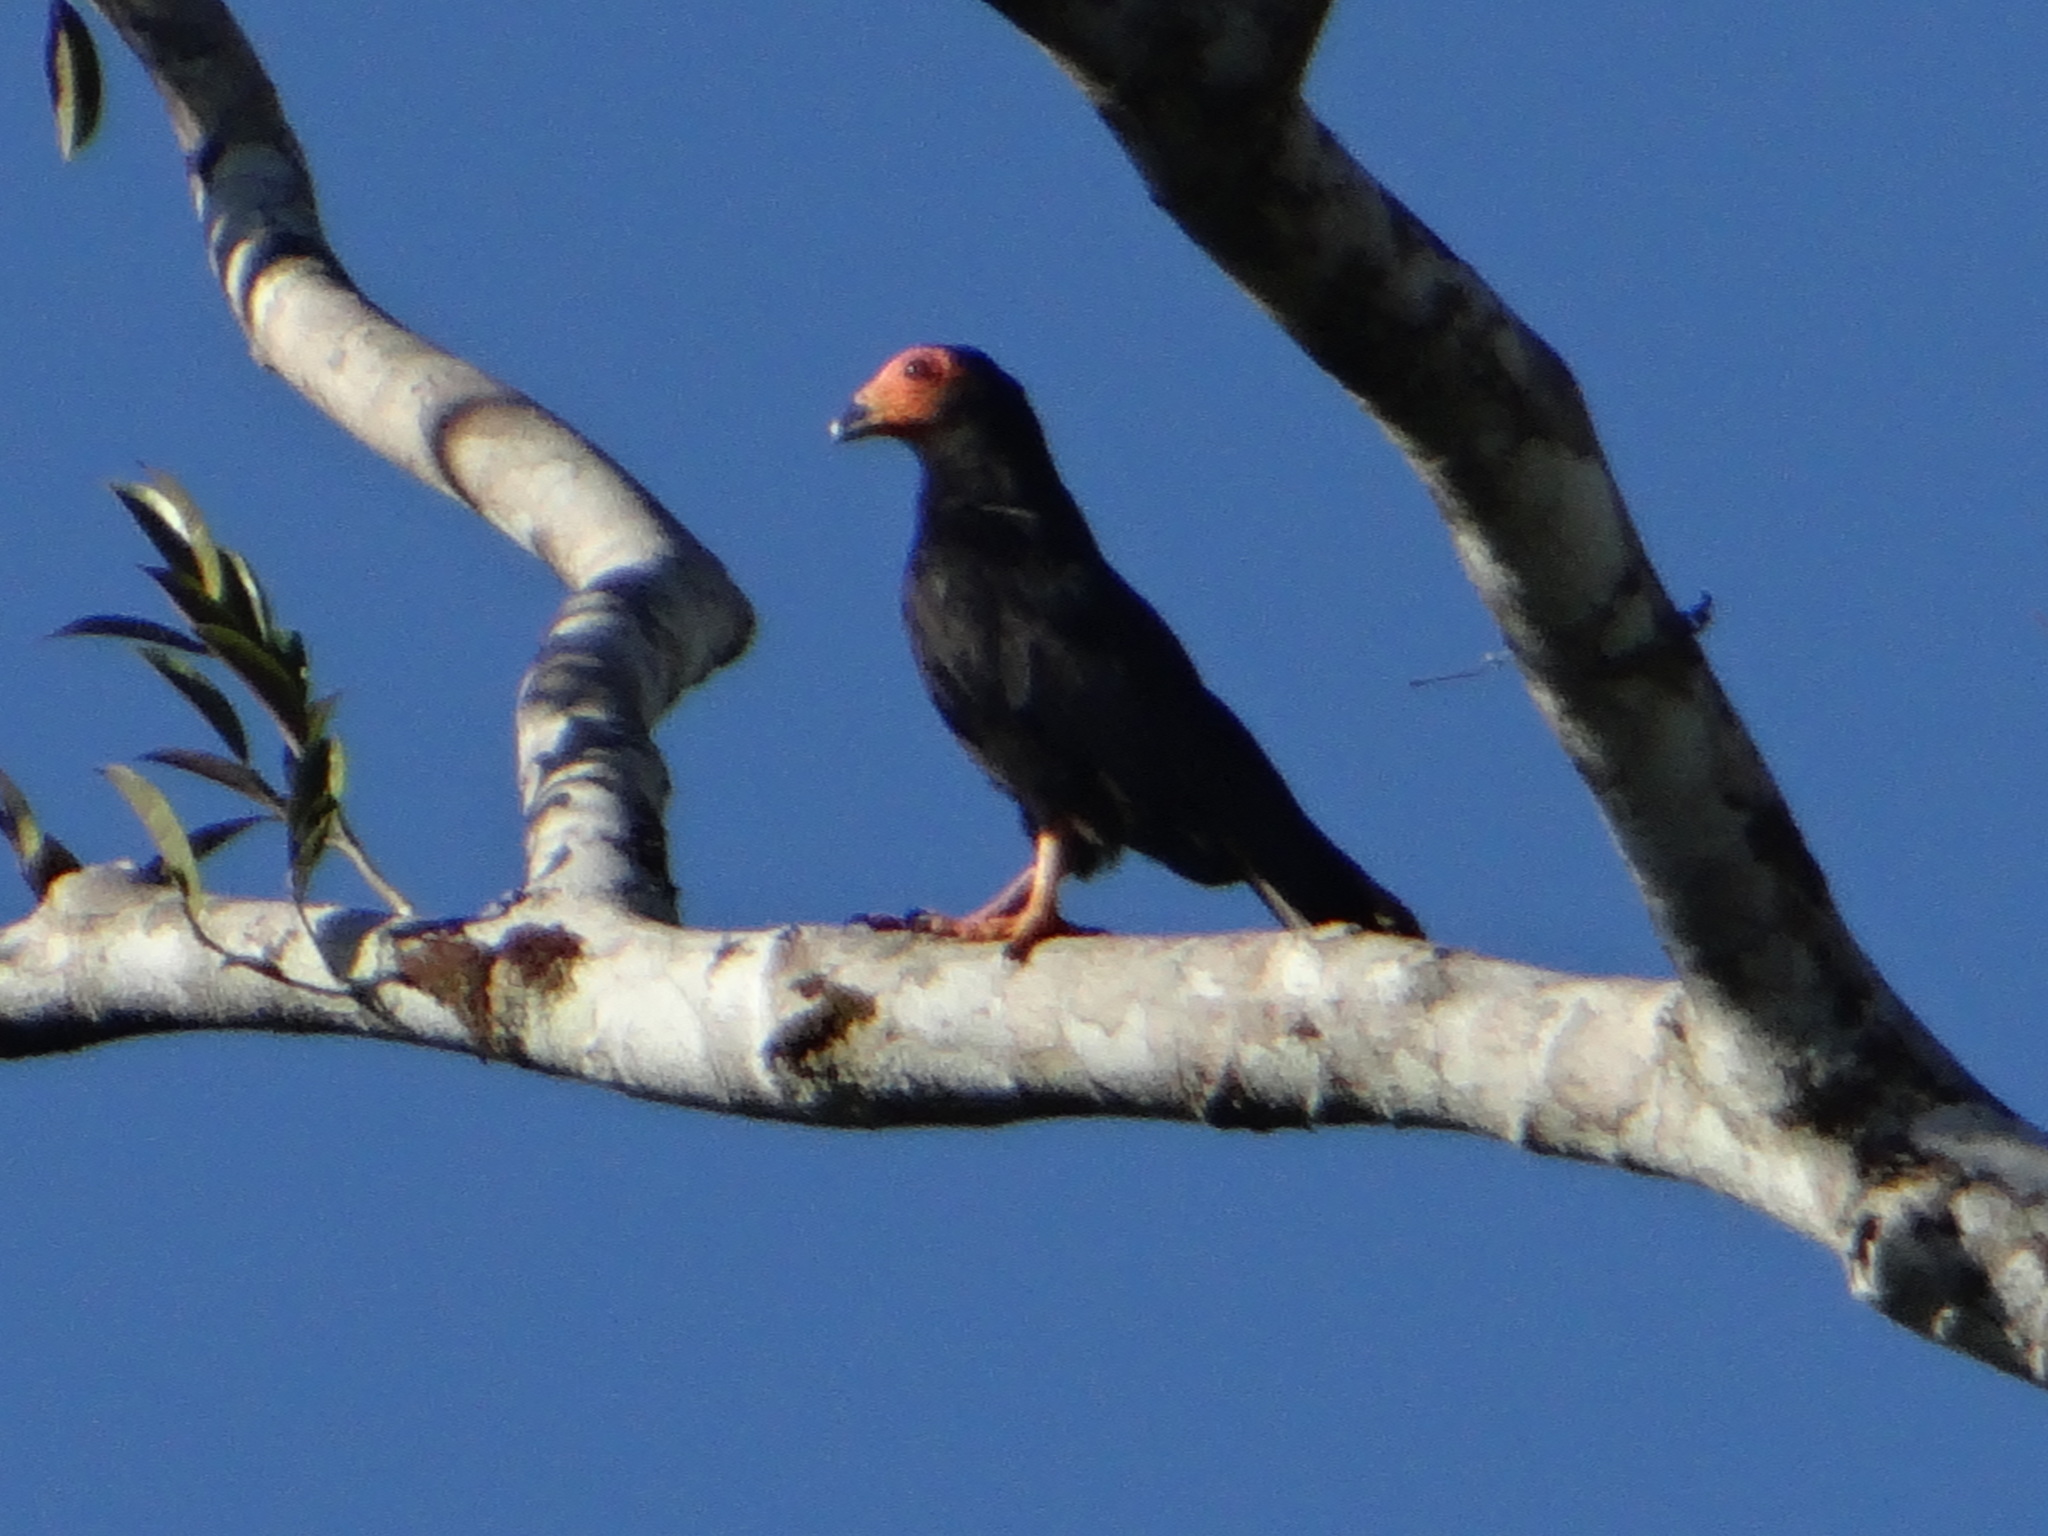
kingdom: Animalia
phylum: Chordata
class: Aves
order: Falconiformes
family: Falconidae
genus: Daptrius
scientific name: Daptrius ater
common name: Black caracara
